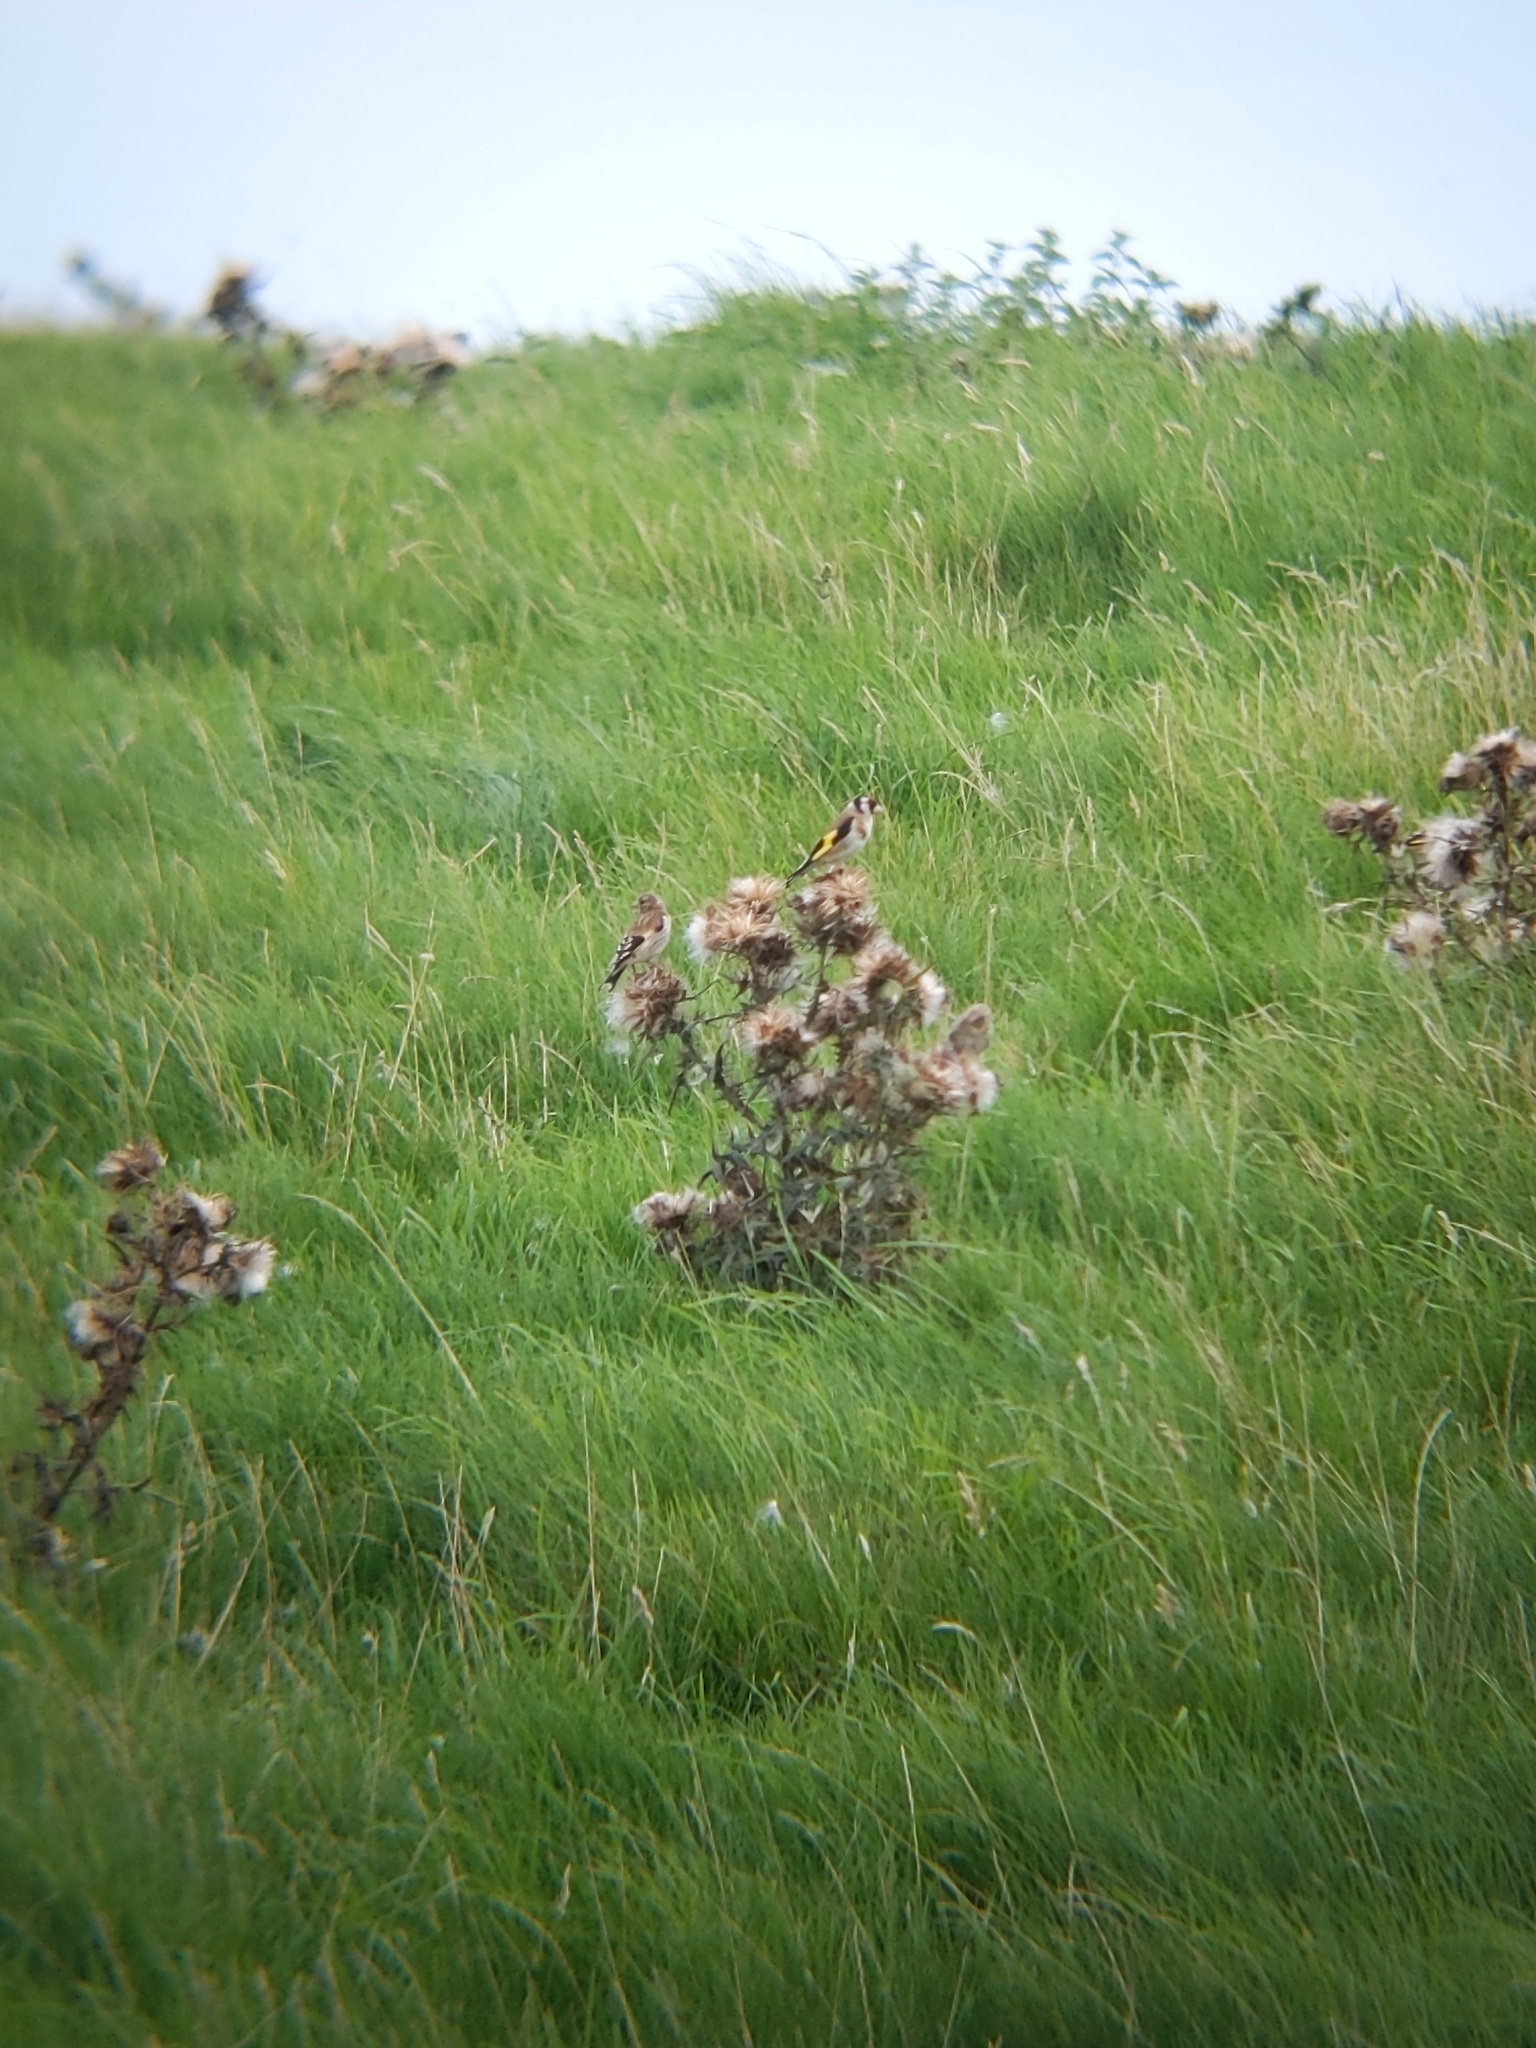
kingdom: Animalia
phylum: Chordata
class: Aves
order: Passeriformes
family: Fringillidae
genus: Carduelis
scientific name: Carduelis carduelis
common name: European goldfinch
